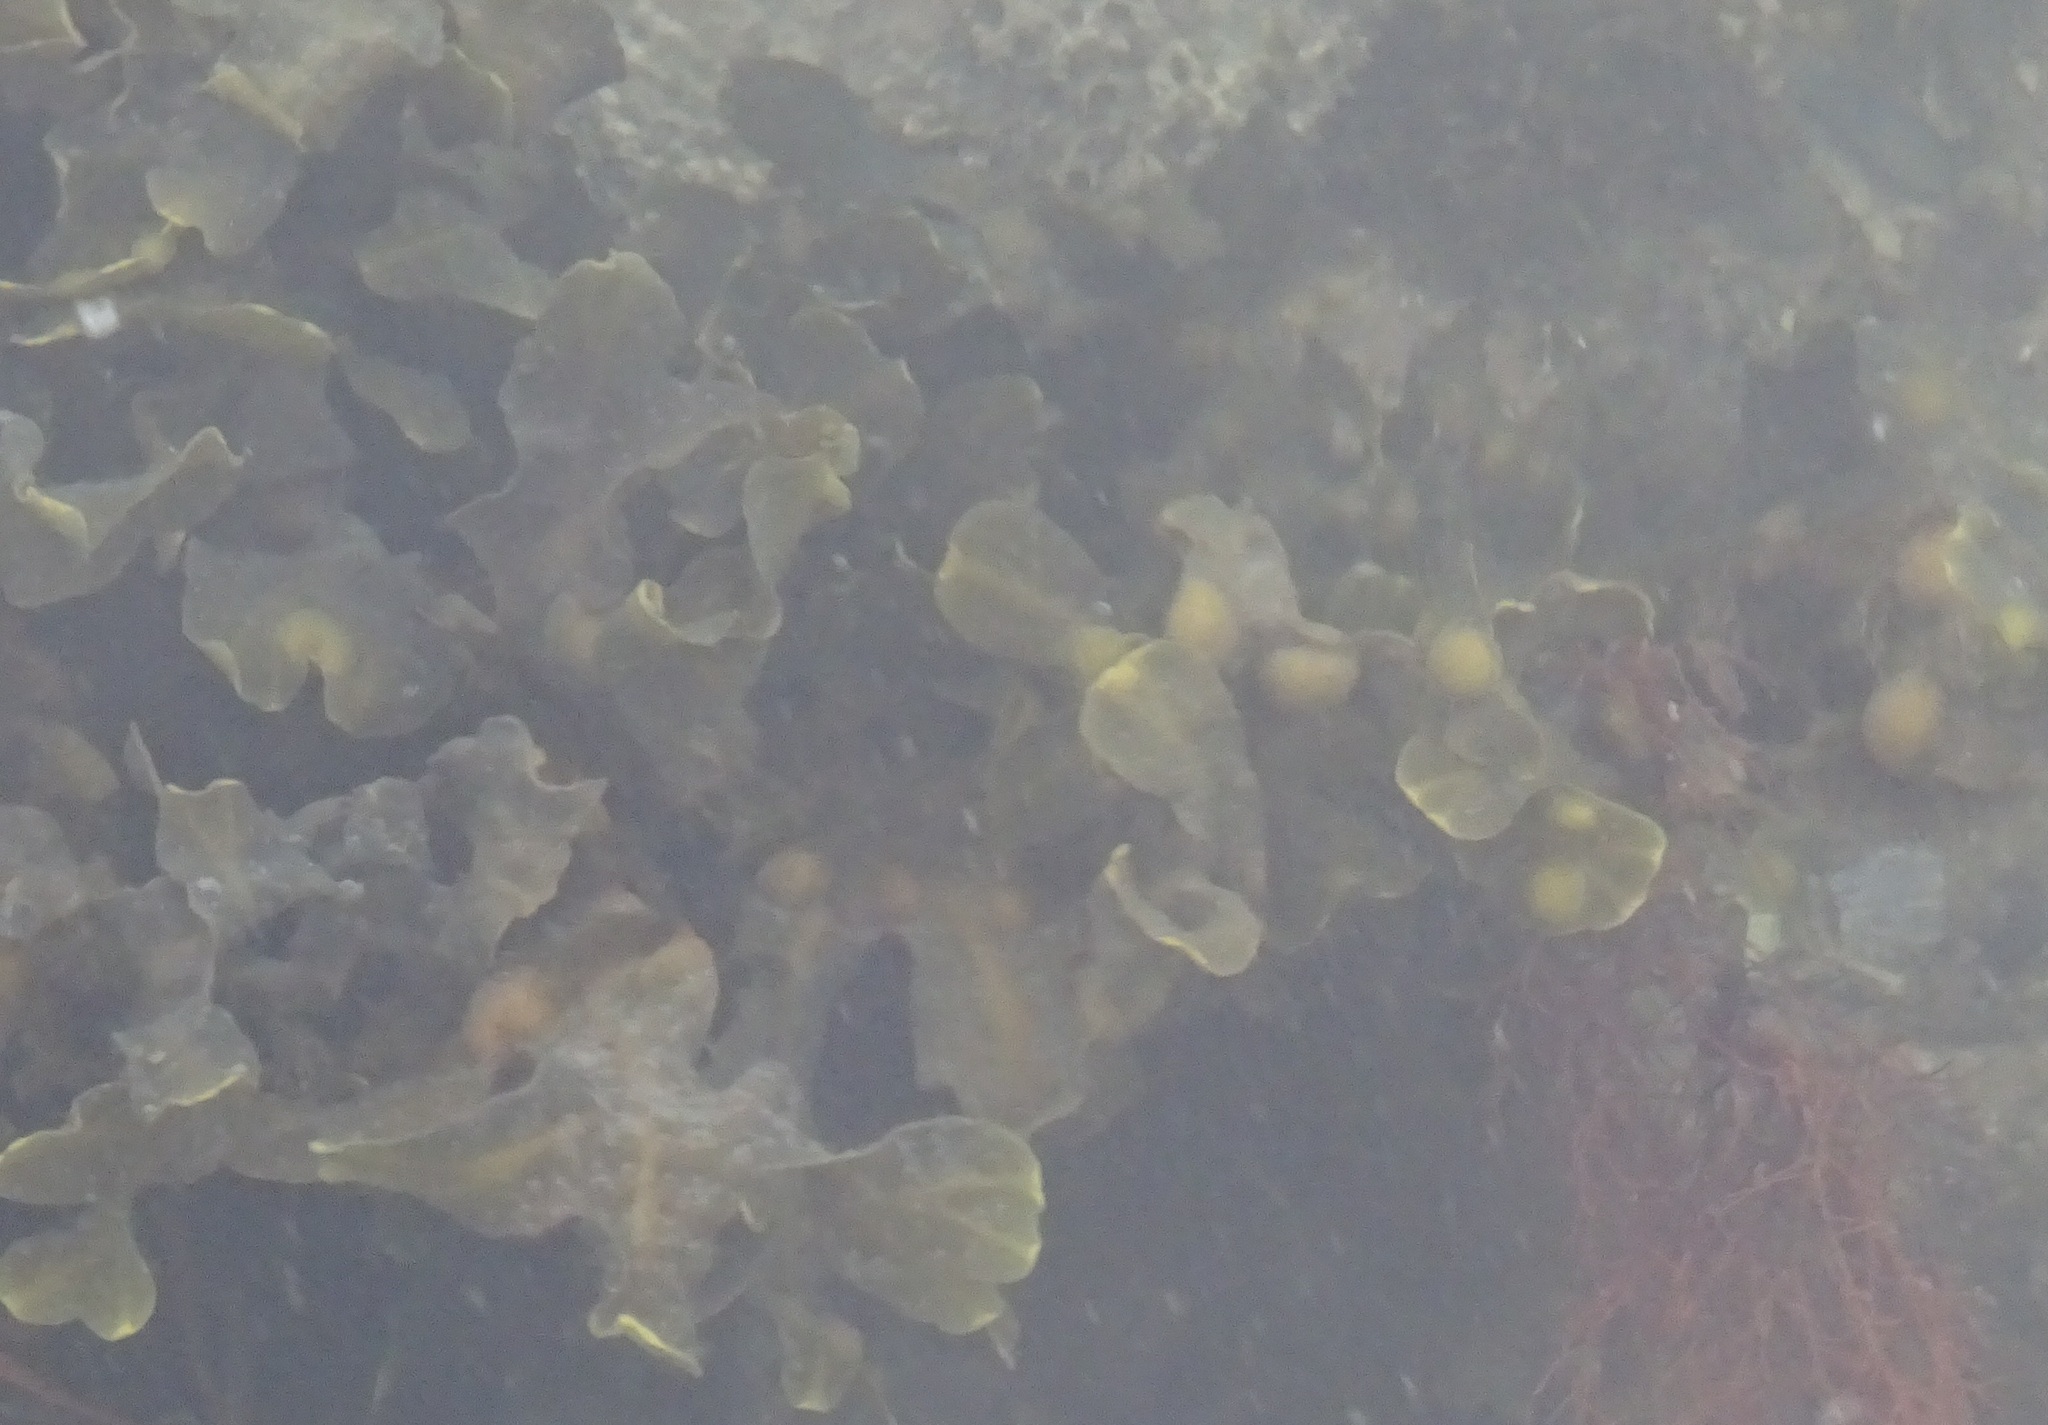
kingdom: Chromista
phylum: Ochrophyta
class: Phaeophyceae
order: Fucales
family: Fucaceae
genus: Fucus
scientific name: Fucus vesiculosus
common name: Bladder wrack
